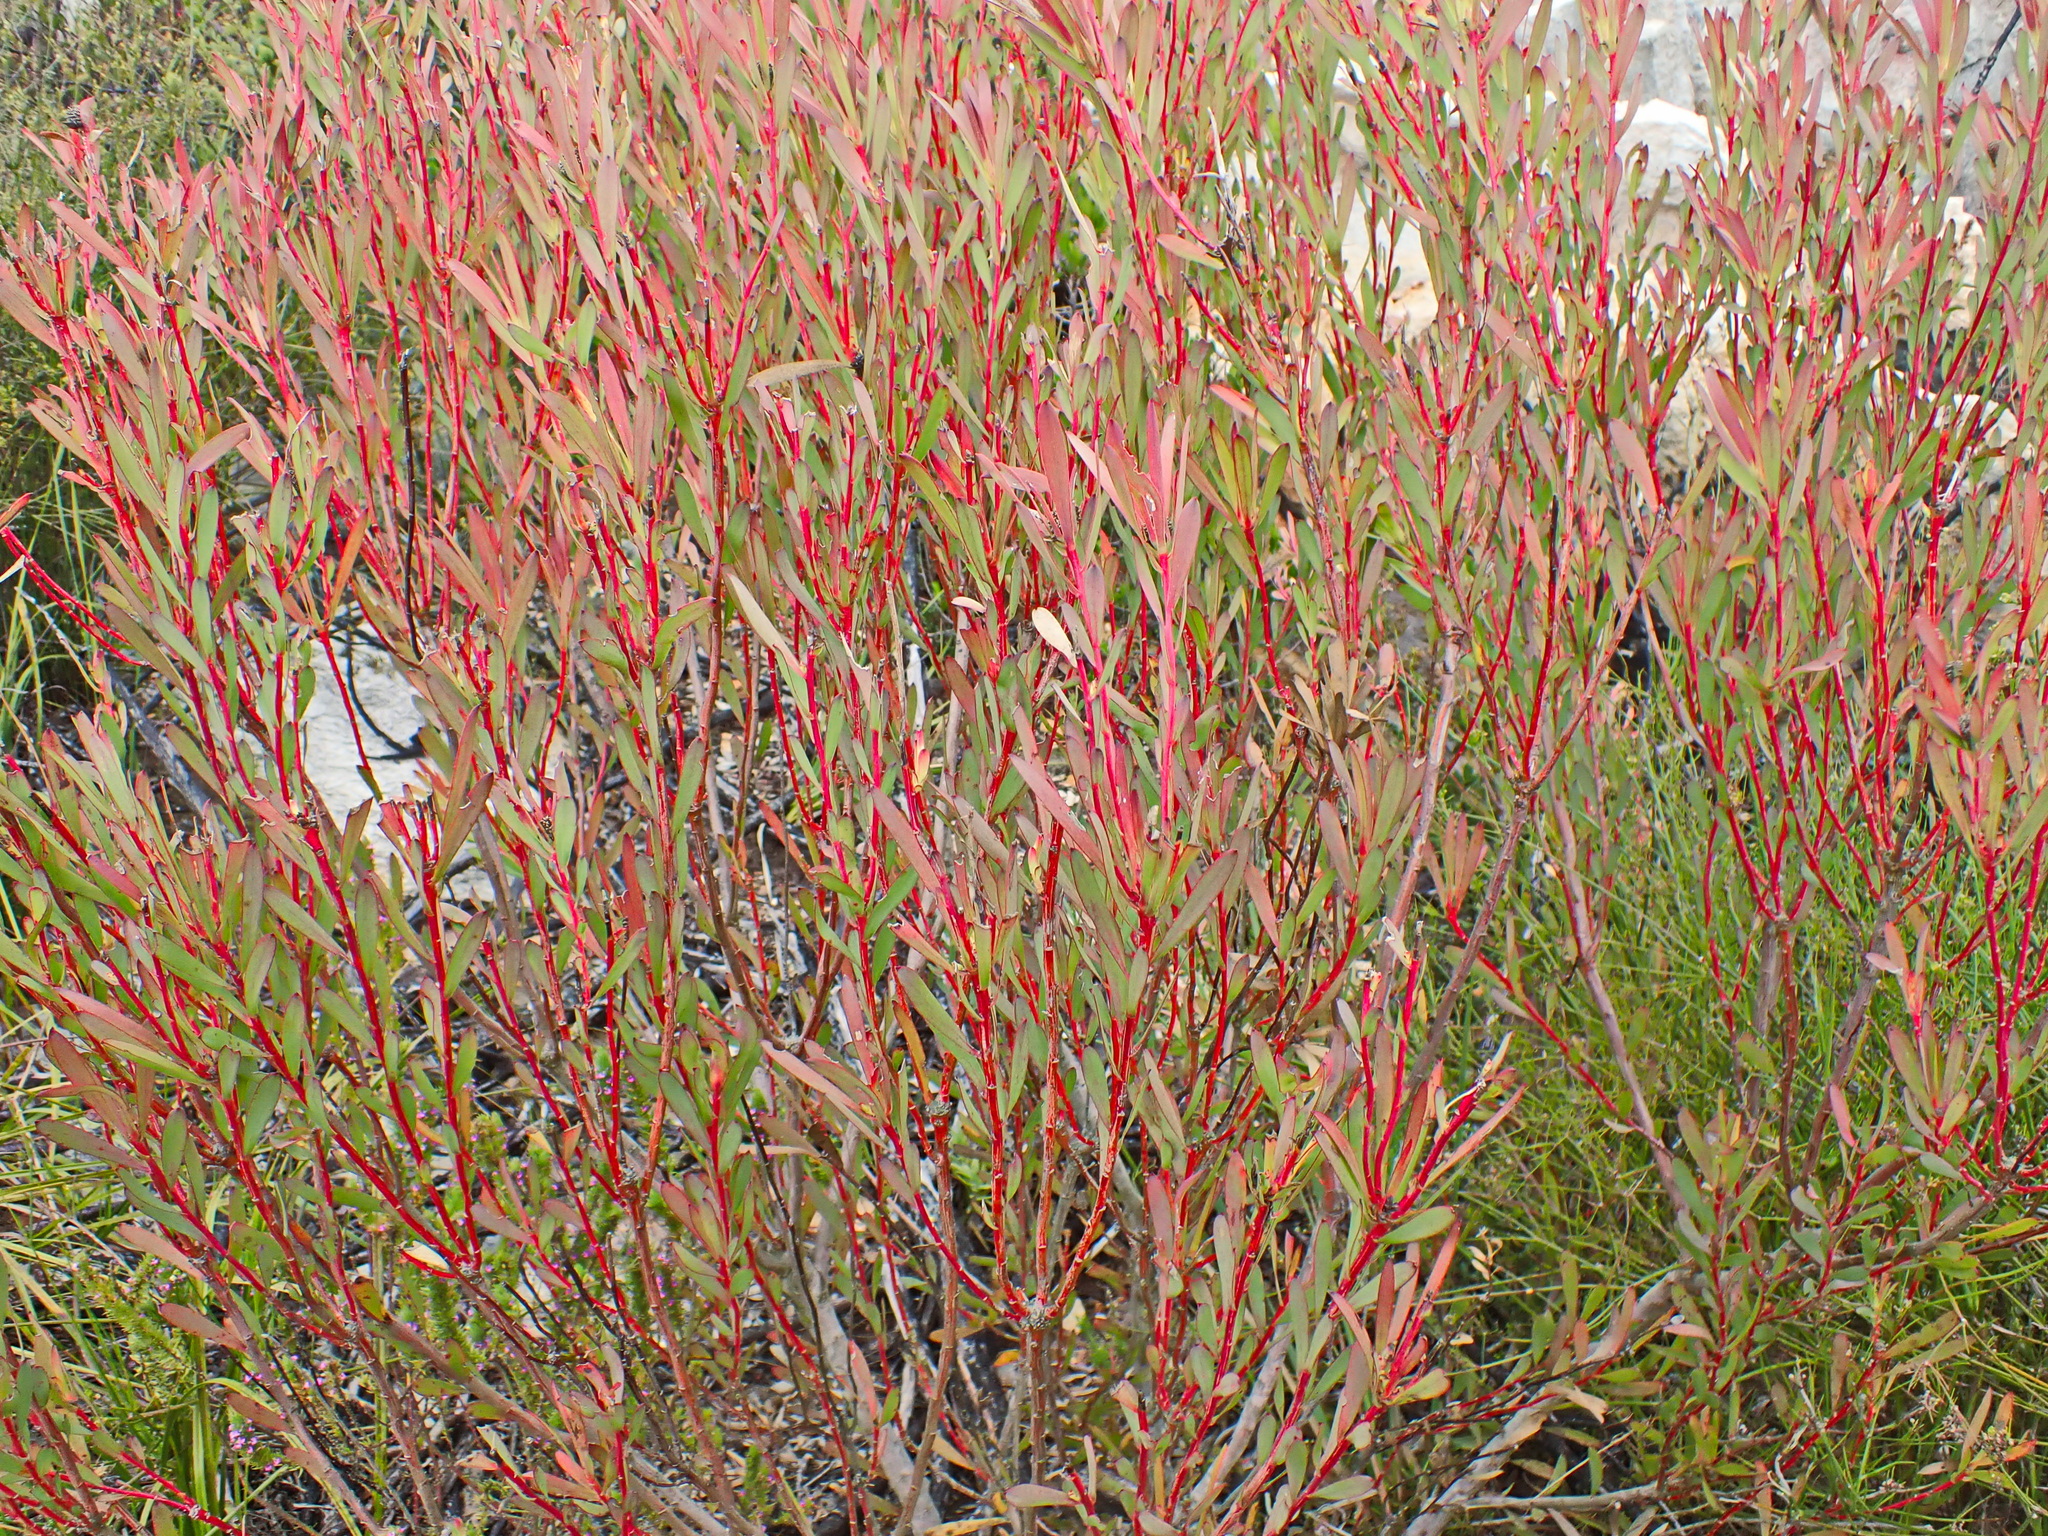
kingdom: Plantae
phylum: Tracheophyta
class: Magnoliopsida
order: Proteales
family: Proteaceae
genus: Leucadendron
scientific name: Leucadendron salignum
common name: Common sunshine conebush
